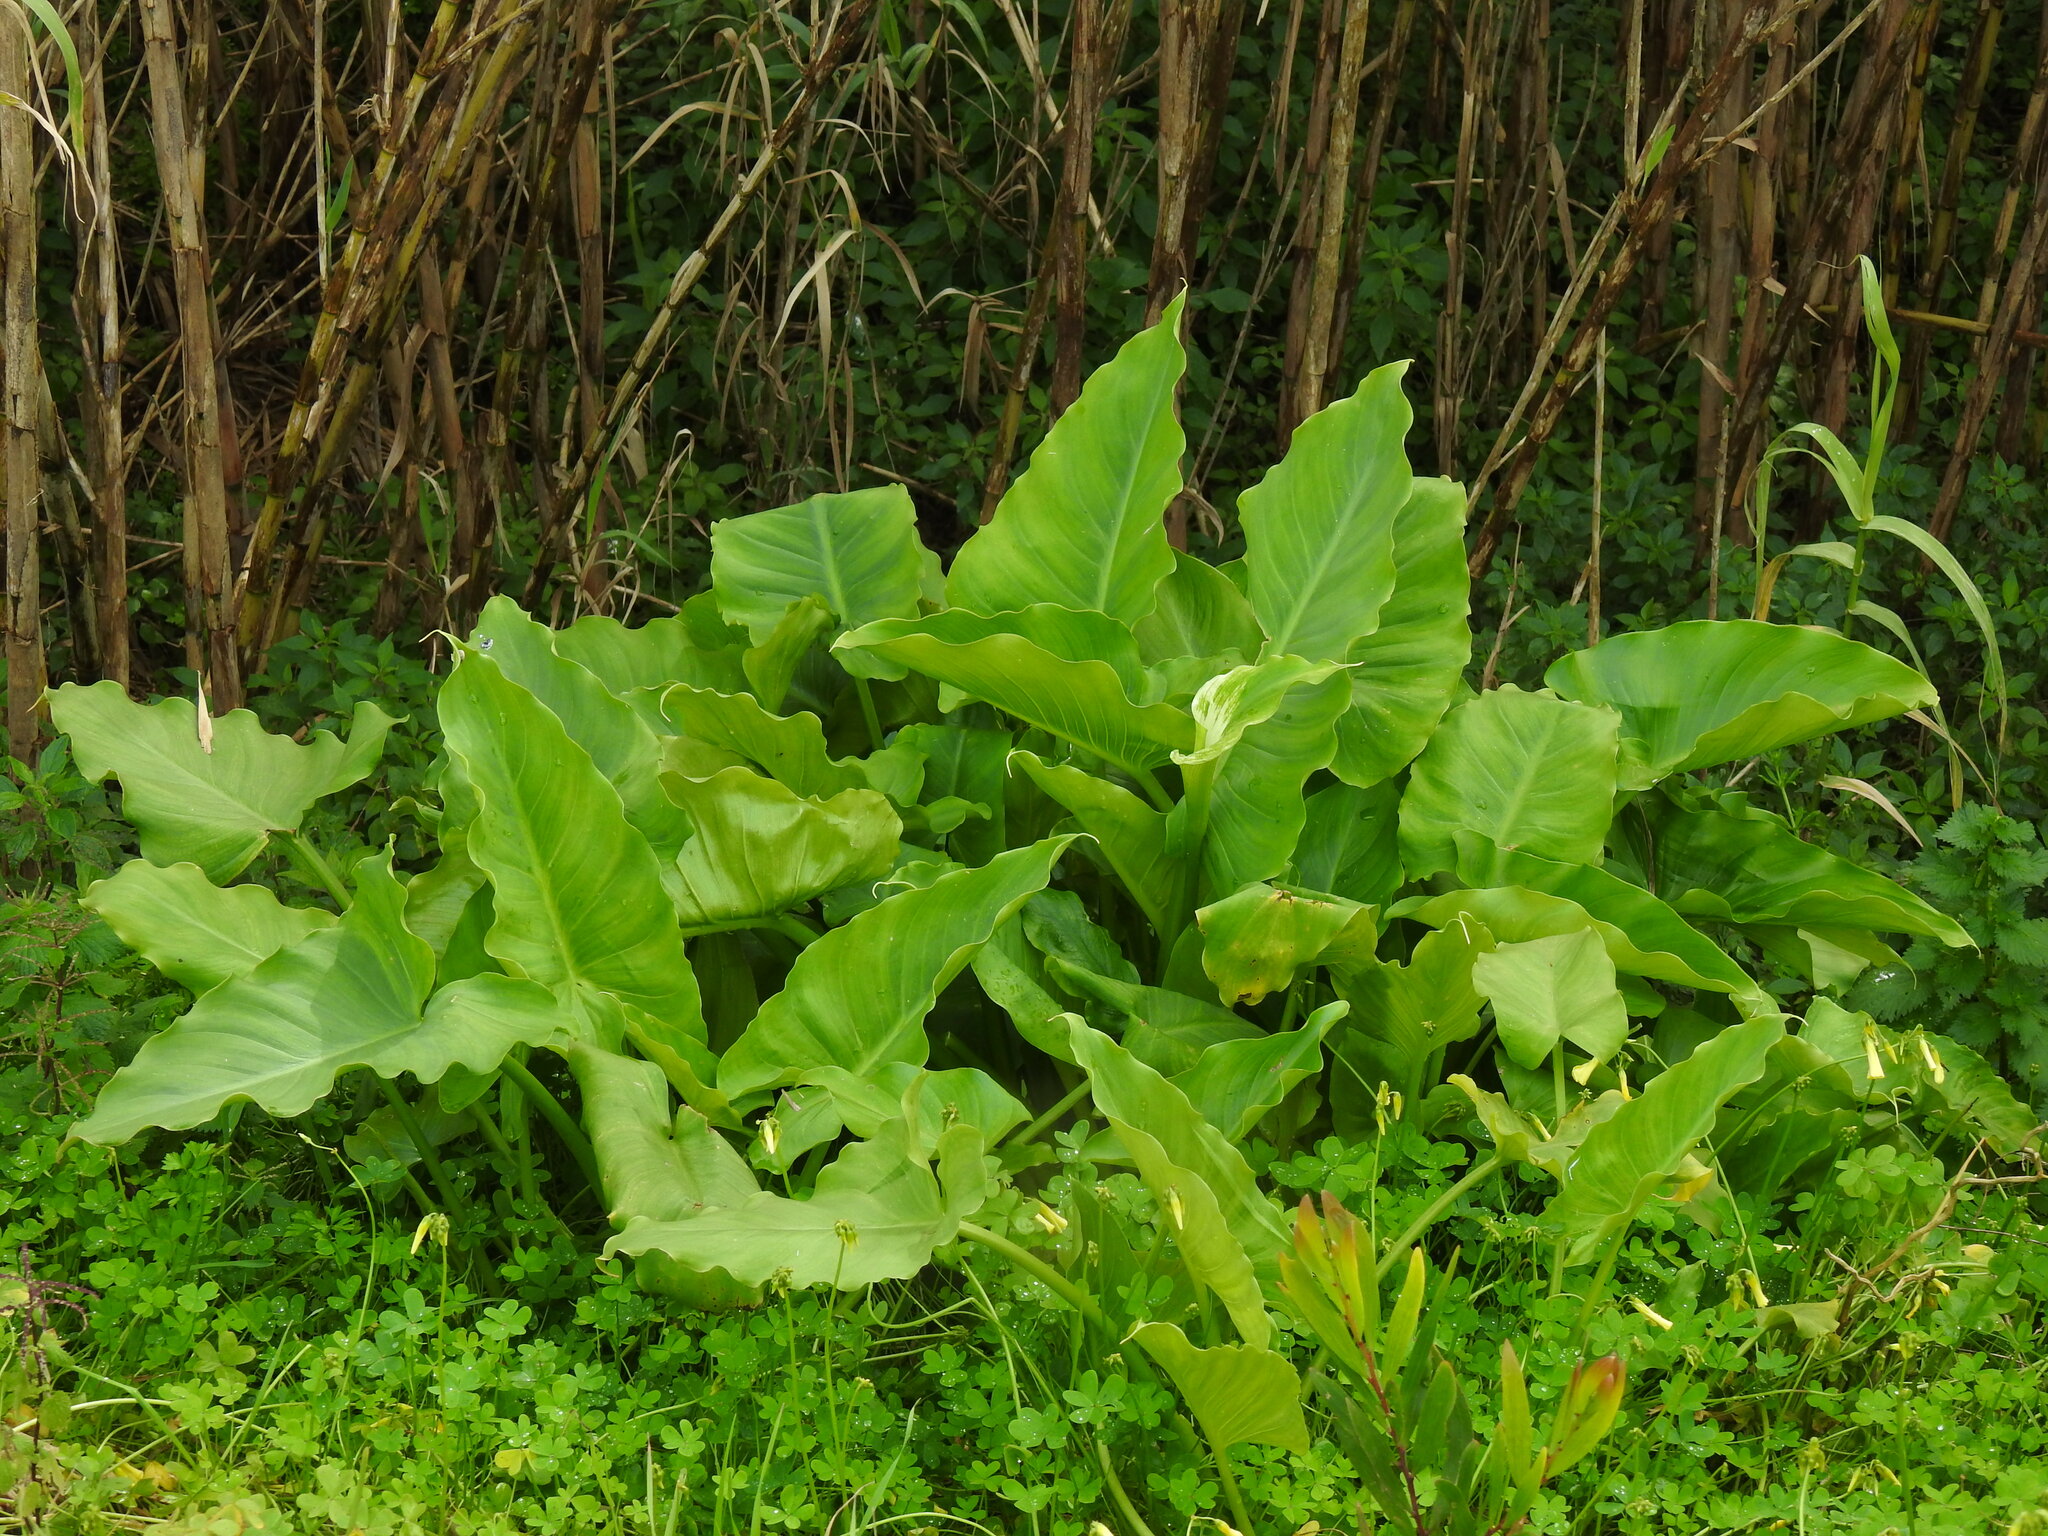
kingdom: Plantae
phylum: Tracheophyta
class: Liliopsida
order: Alismatales
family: Araceae
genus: Zantedeschia
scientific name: Zantedeschia aethiopica
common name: Altar-lily
